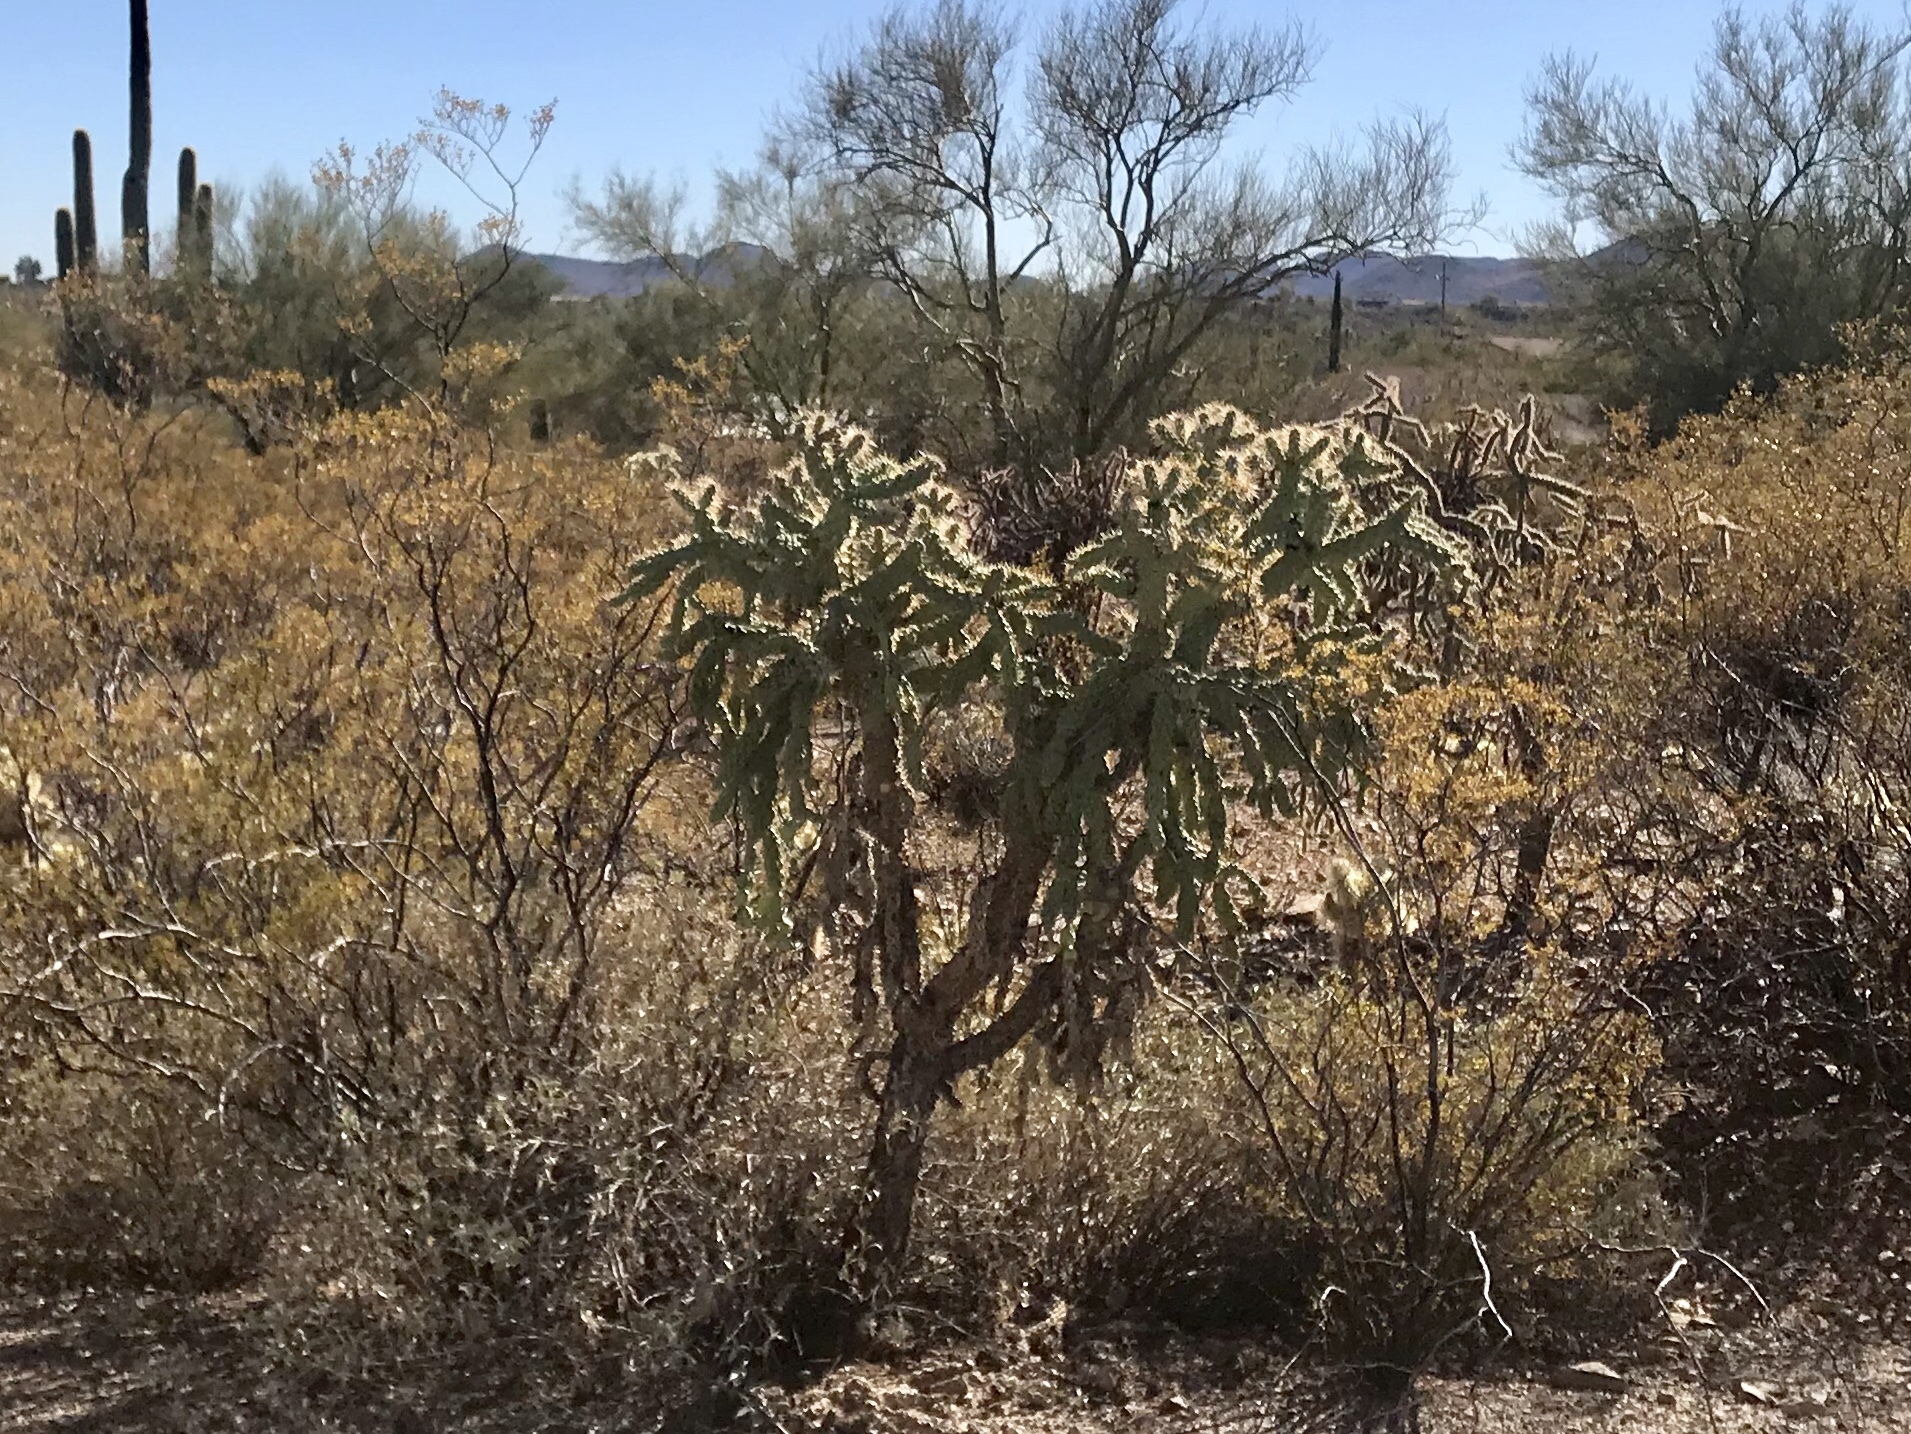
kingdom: Plantae
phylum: Tracheophyta
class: Magnoliopsida
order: Caryophyllales
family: Cactaceae
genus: Cylindropuntia
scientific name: Cylindropuntia fulgida
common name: Jumping cholla
